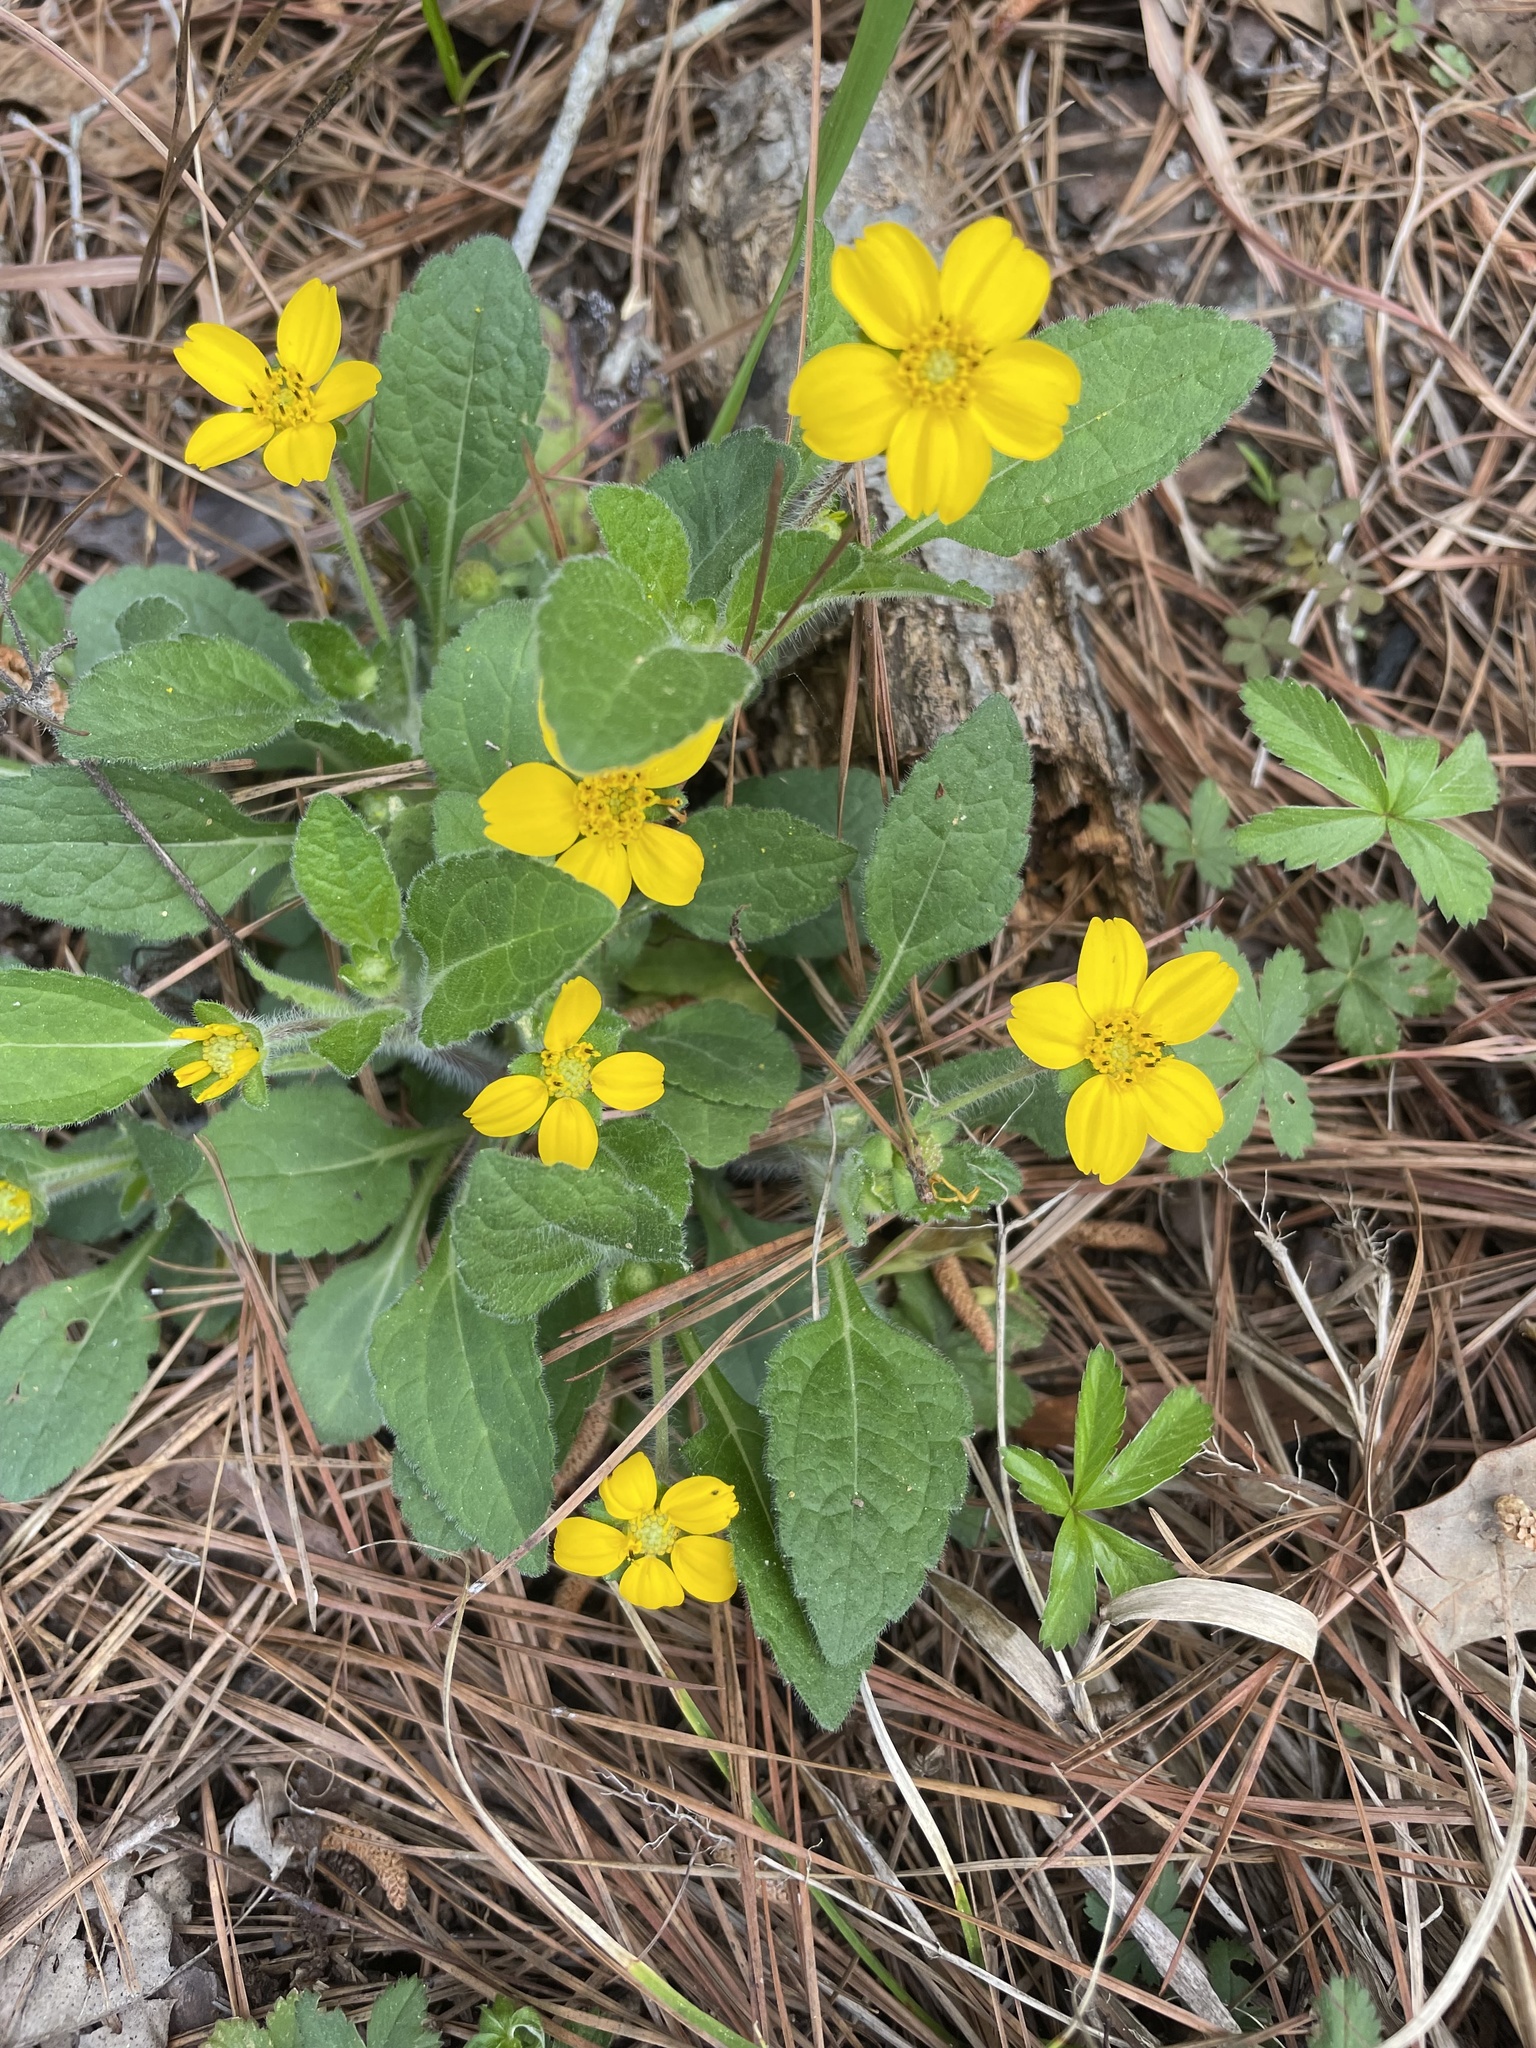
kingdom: Plantae
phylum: Tracheophyta
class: Magnoliopsida
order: Asterales
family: Asteraceae
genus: Chrysogonum
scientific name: Chrysogonum virginianum
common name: Golden-knee
